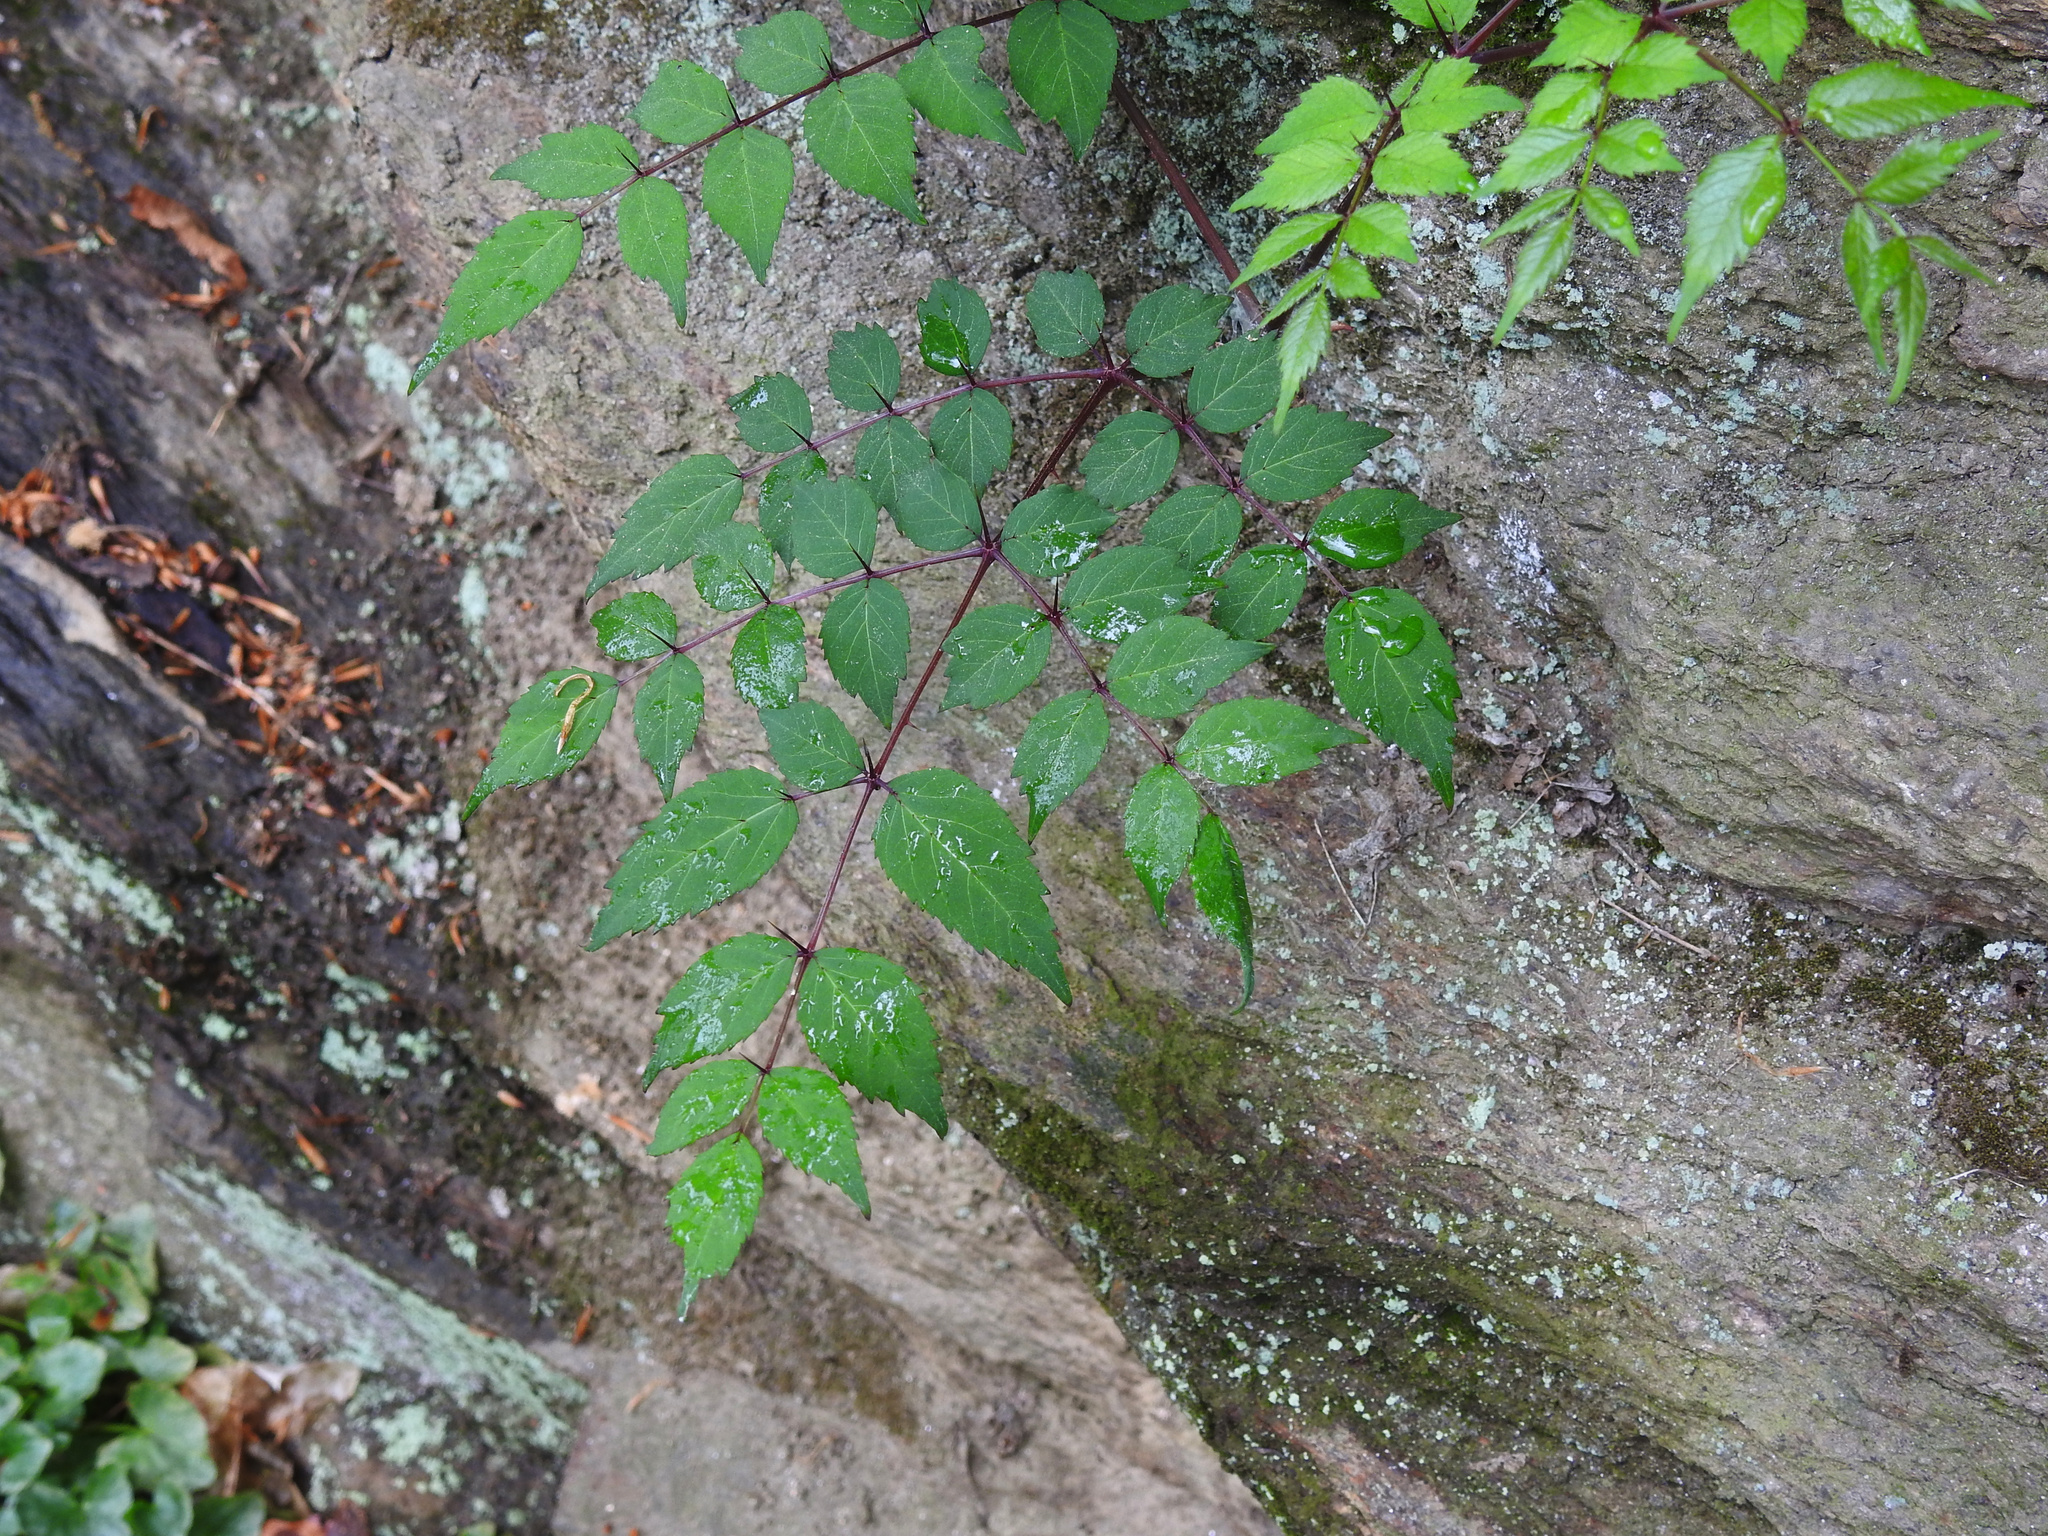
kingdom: Plantae
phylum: Tracheophyta
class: Magnoliopsida
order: Apiales
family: Araliaceae
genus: Aralia
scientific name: Aralia elata
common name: Japanese angelica-tree
